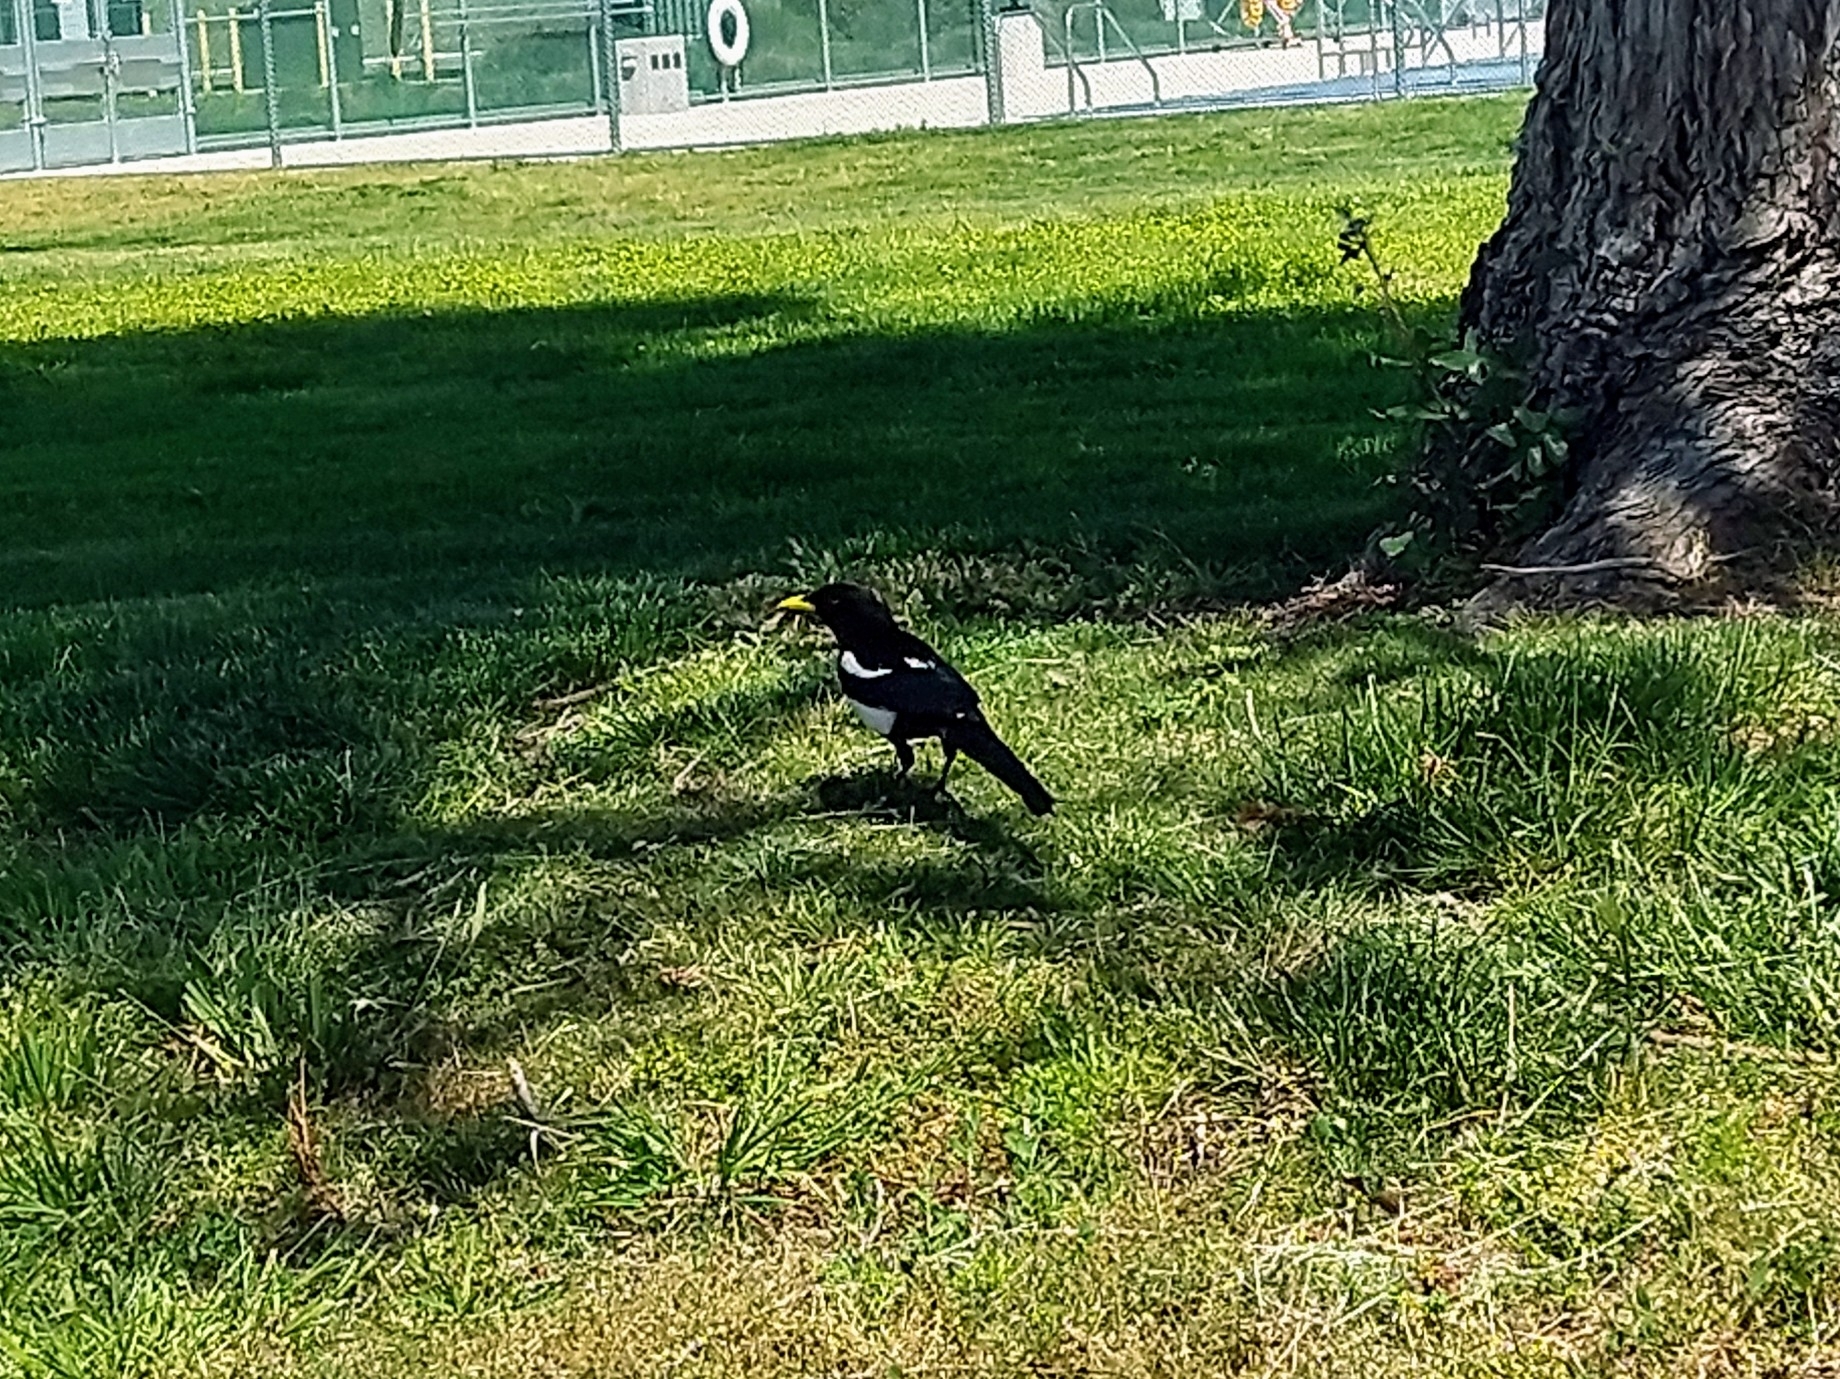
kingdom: Animalia
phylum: Chordata
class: Aves
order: Passeriformes
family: Corvidae
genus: Pica
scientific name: Pica nuttalli
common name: Yellow-billed magpie
